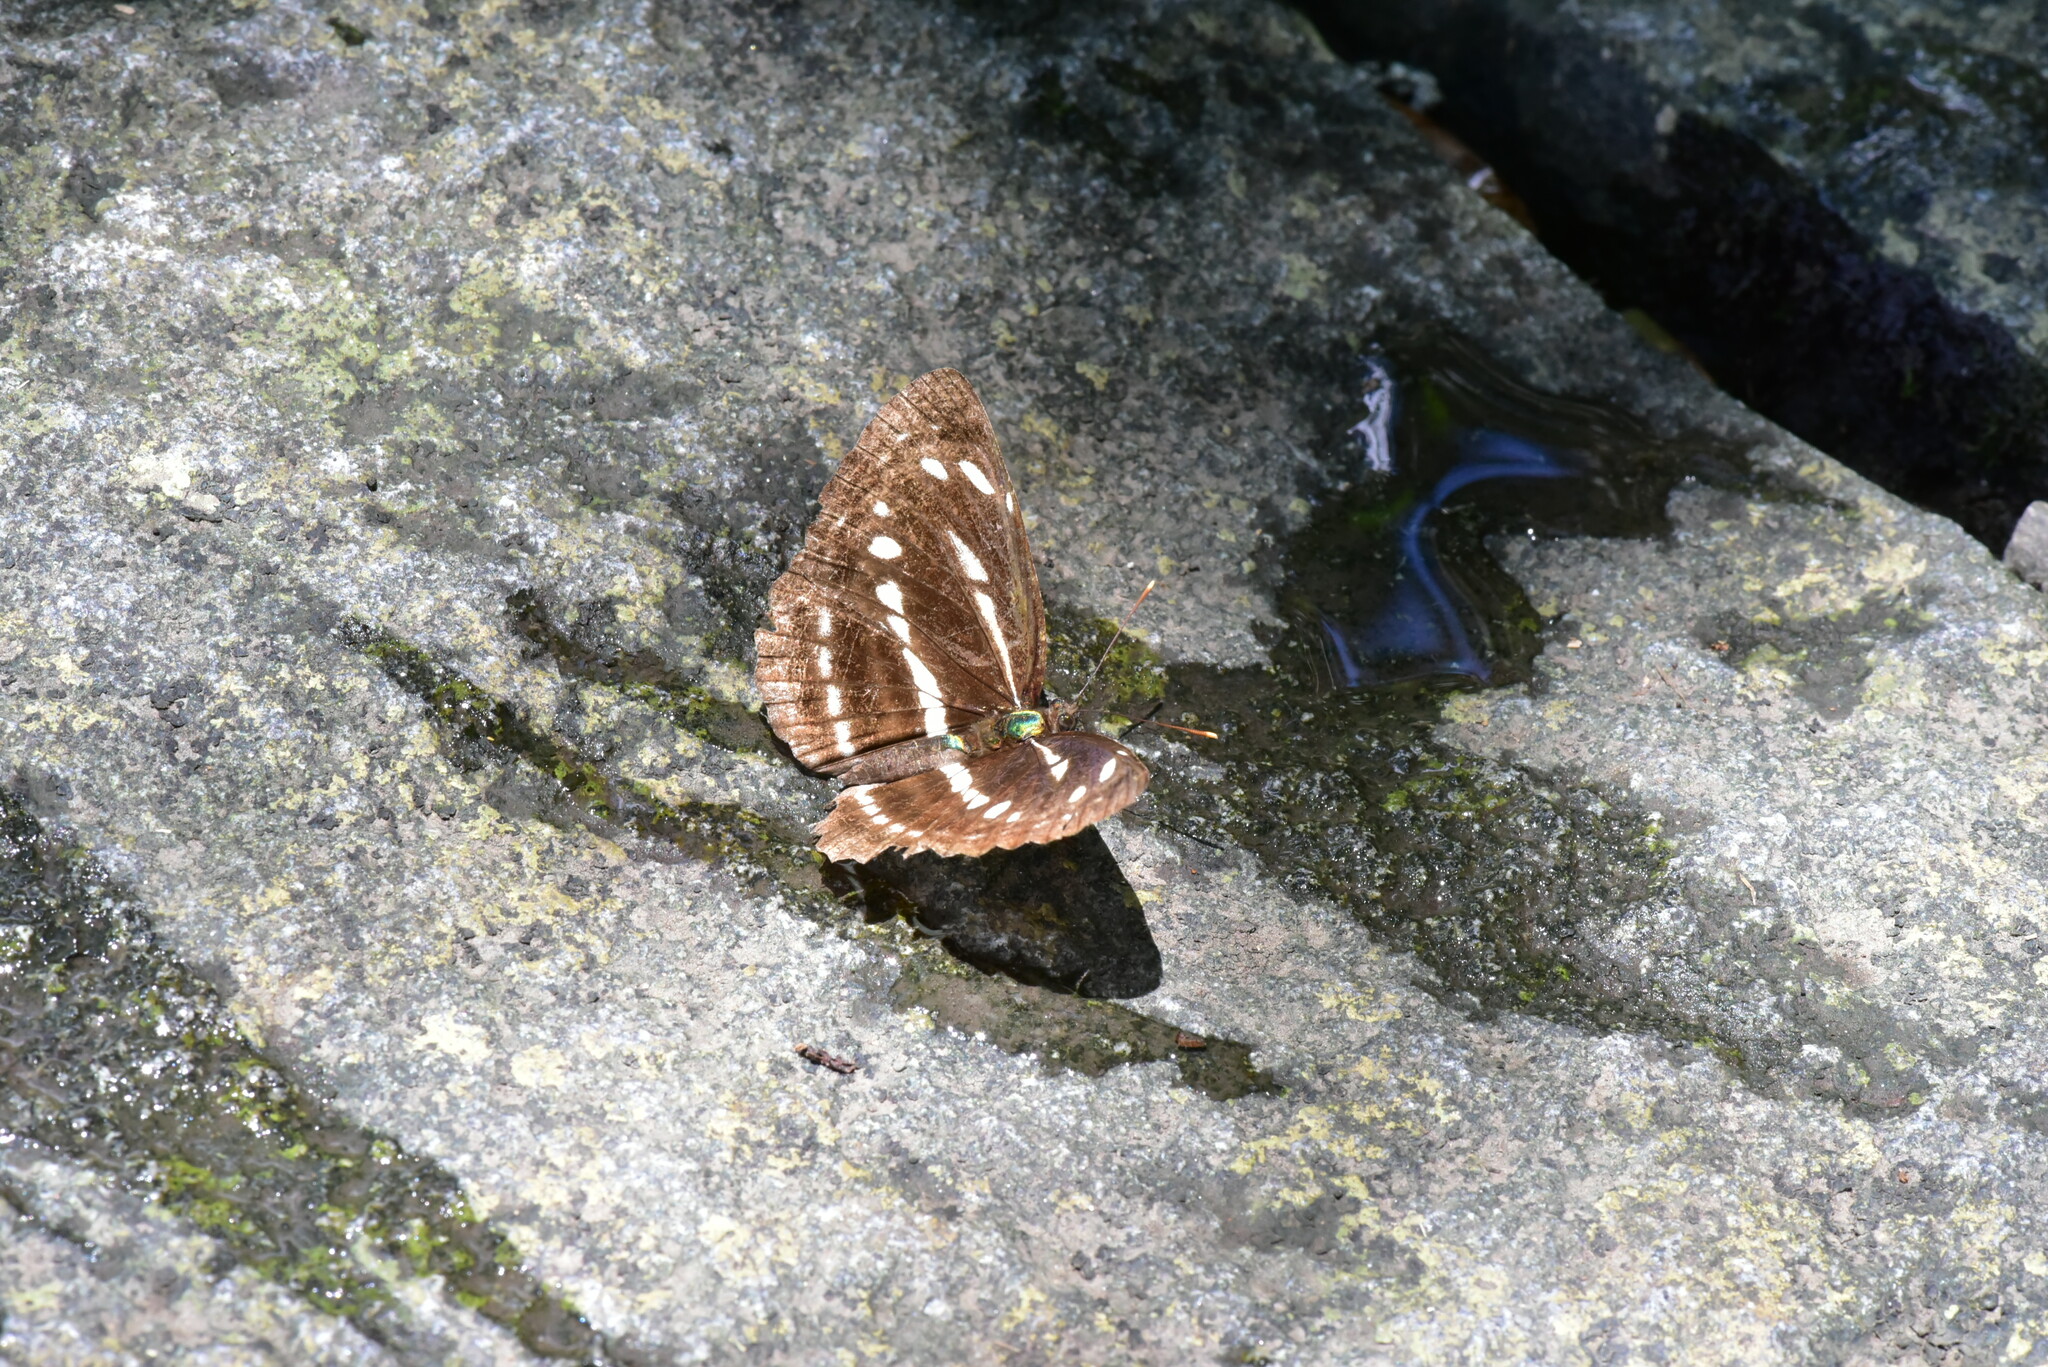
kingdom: Animalia
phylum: Arthropoda
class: Insecta
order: Lepidoptera
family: Nymphalidae
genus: Neptis
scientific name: Neptis nata
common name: Sullied brown sailer
